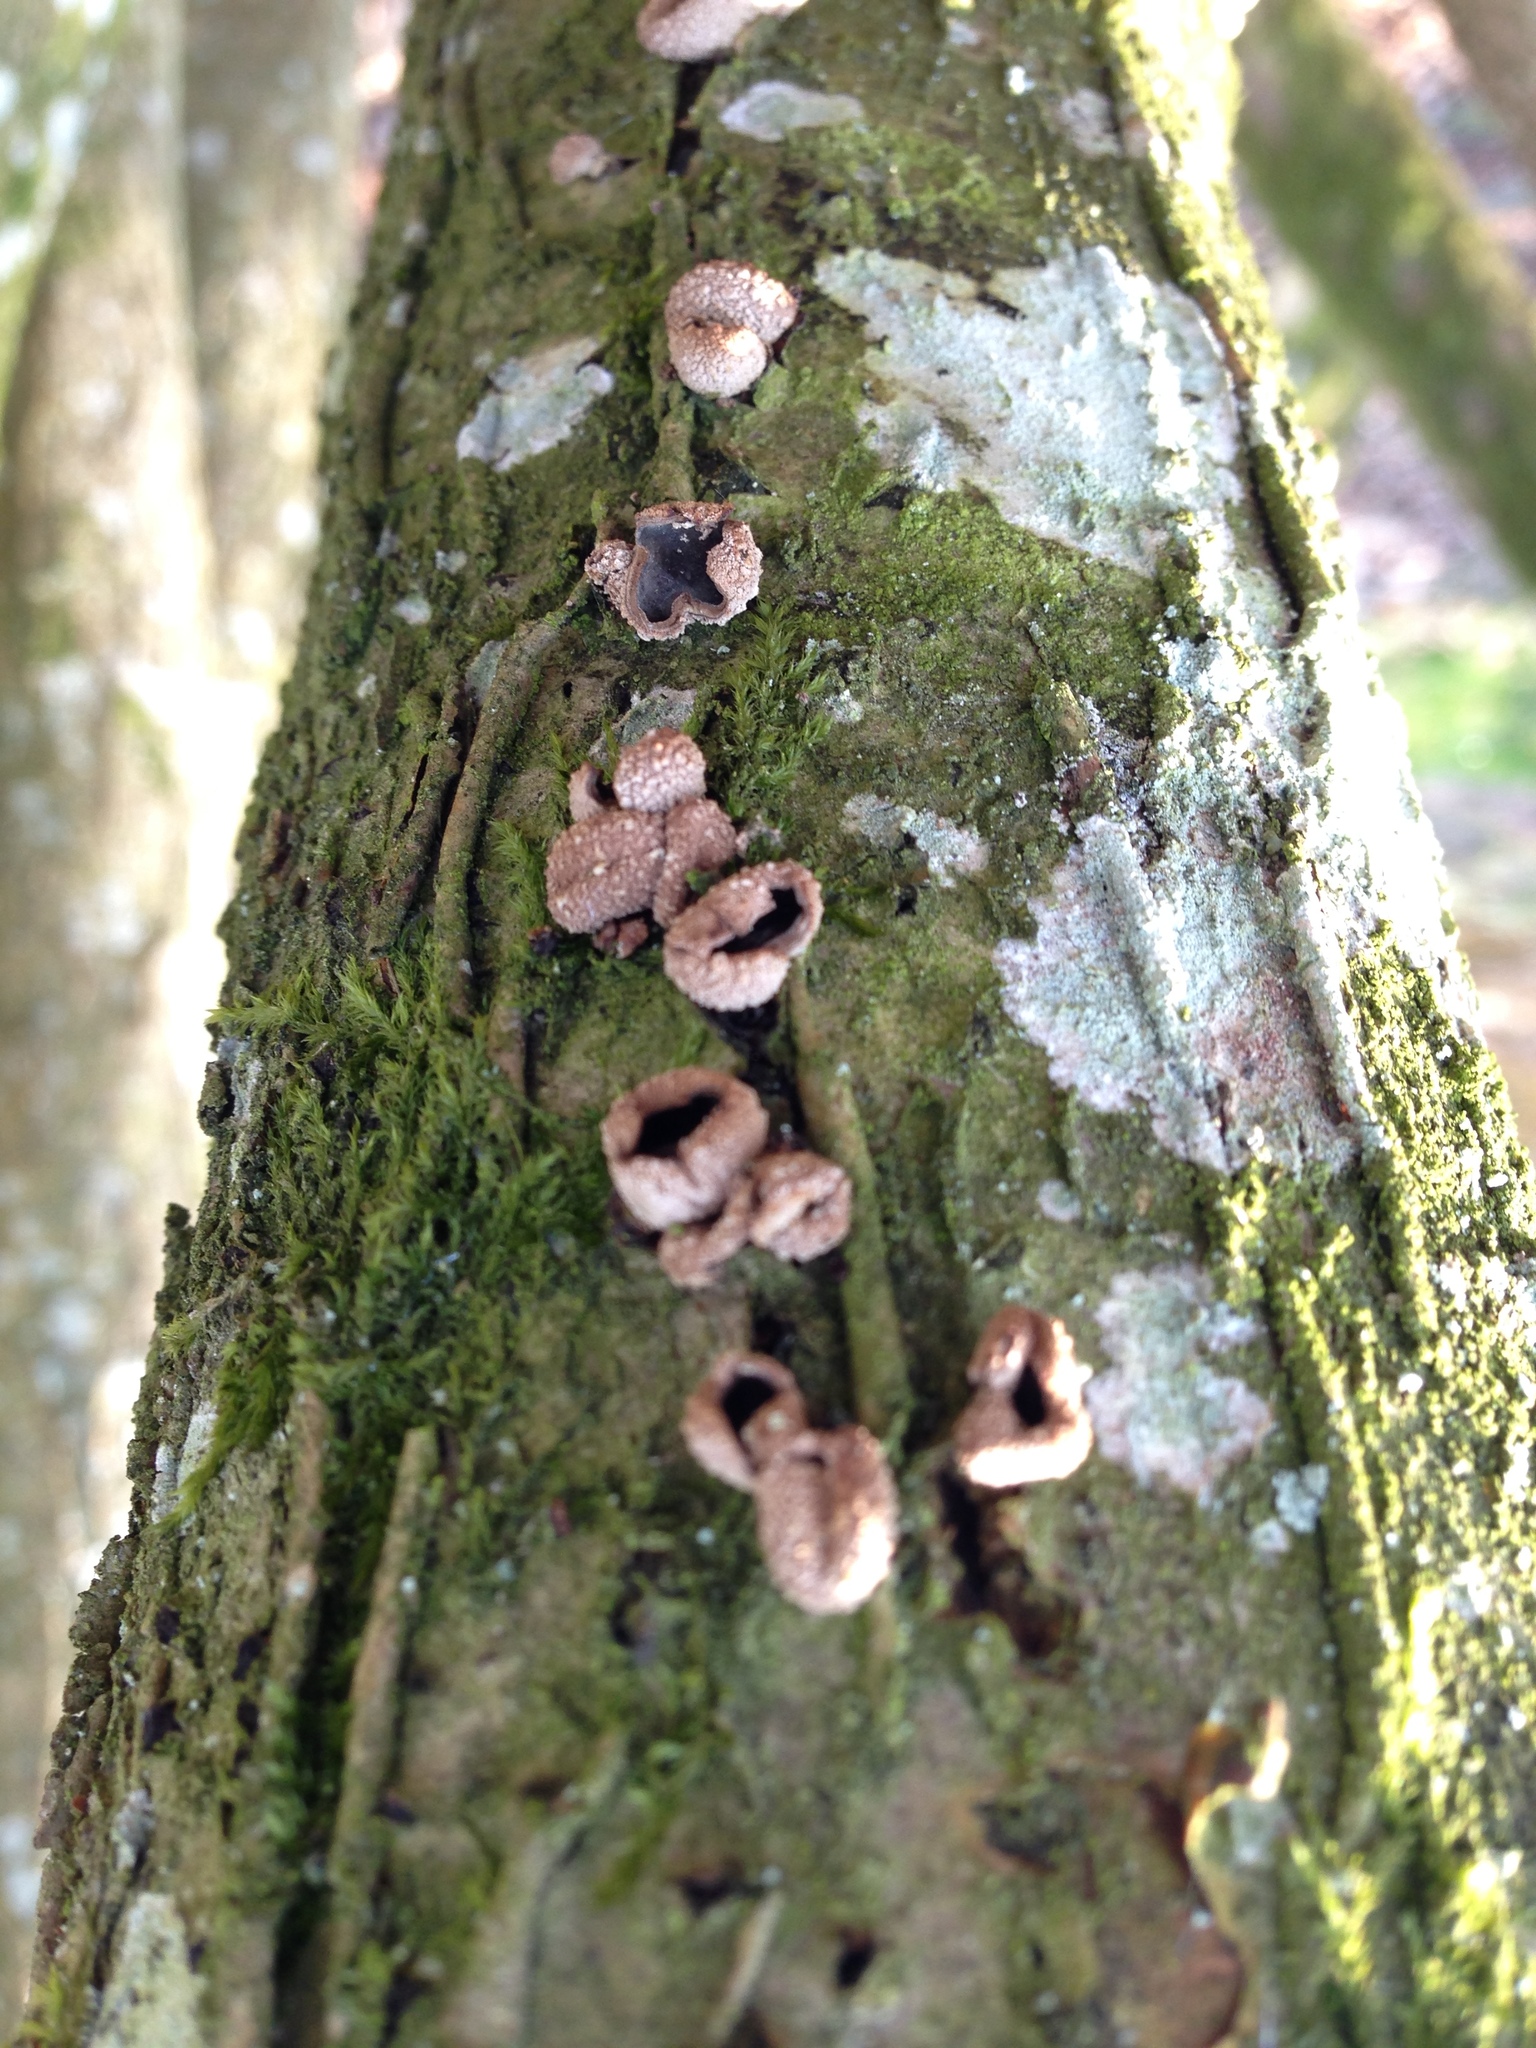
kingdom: Fungi
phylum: Ascomycota
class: Leotiomycetes
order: Helotiales
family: Cenangiaceae
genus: Encoelia
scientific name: Encoelia furfuracea
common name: Spring hazelcup
